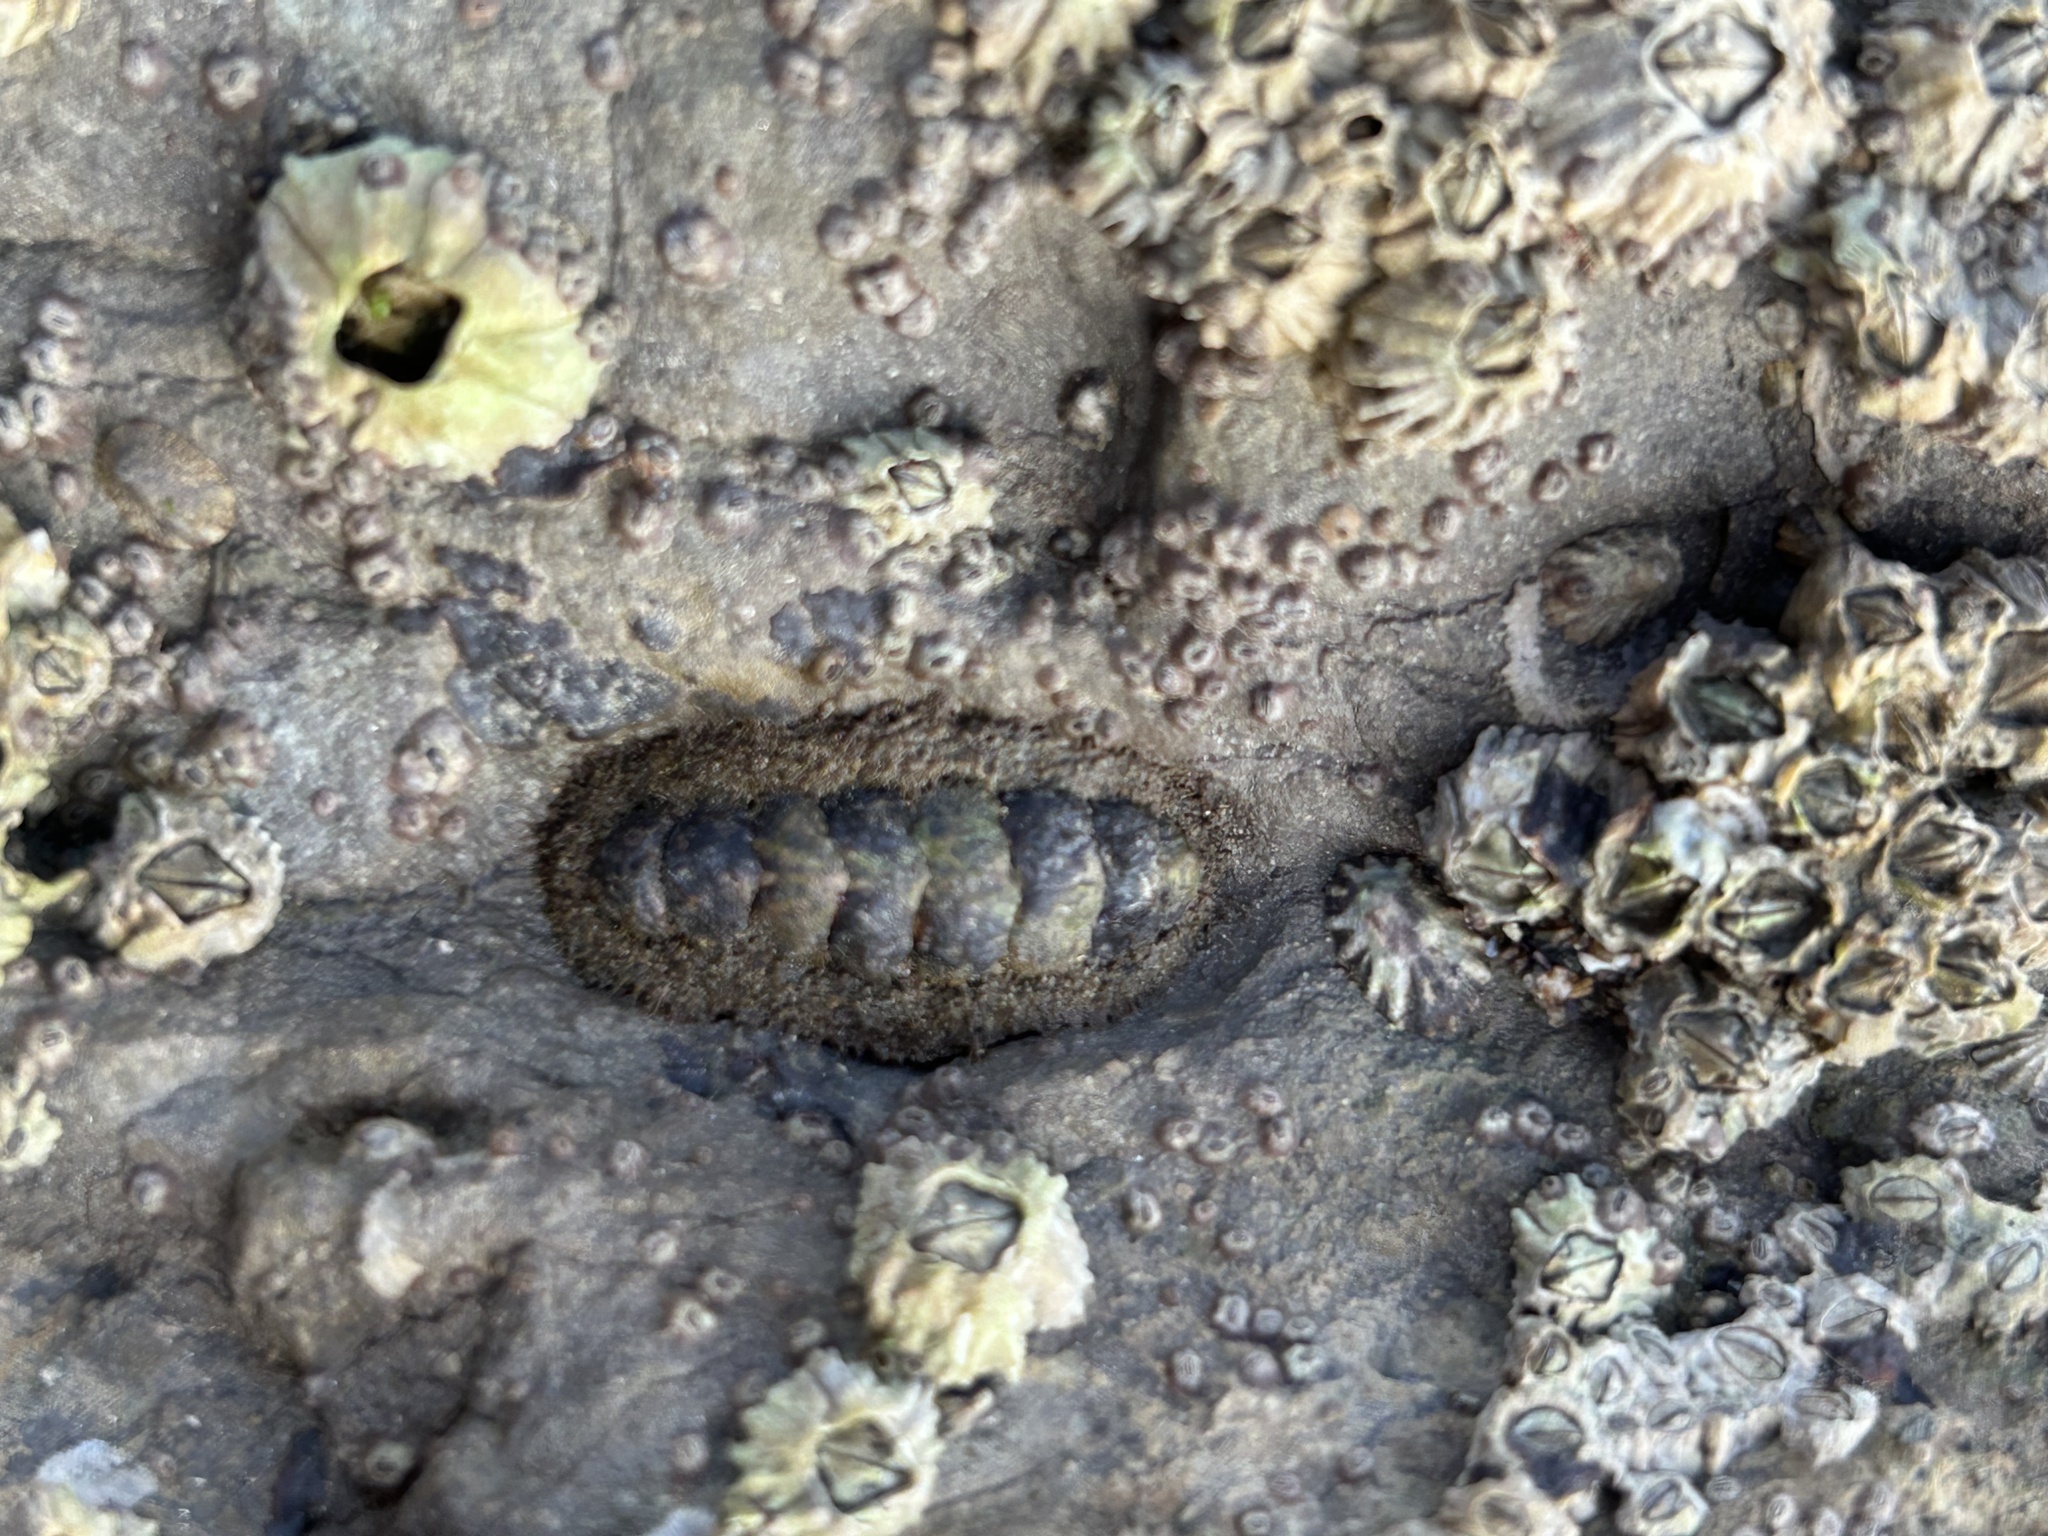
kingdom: Animalia
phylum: Mollusca
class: Polyplacophora
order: Chitonida
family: Tonicellidae
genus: Nuttallina
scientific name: Nuttallina californica
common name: California nuttall chiton
